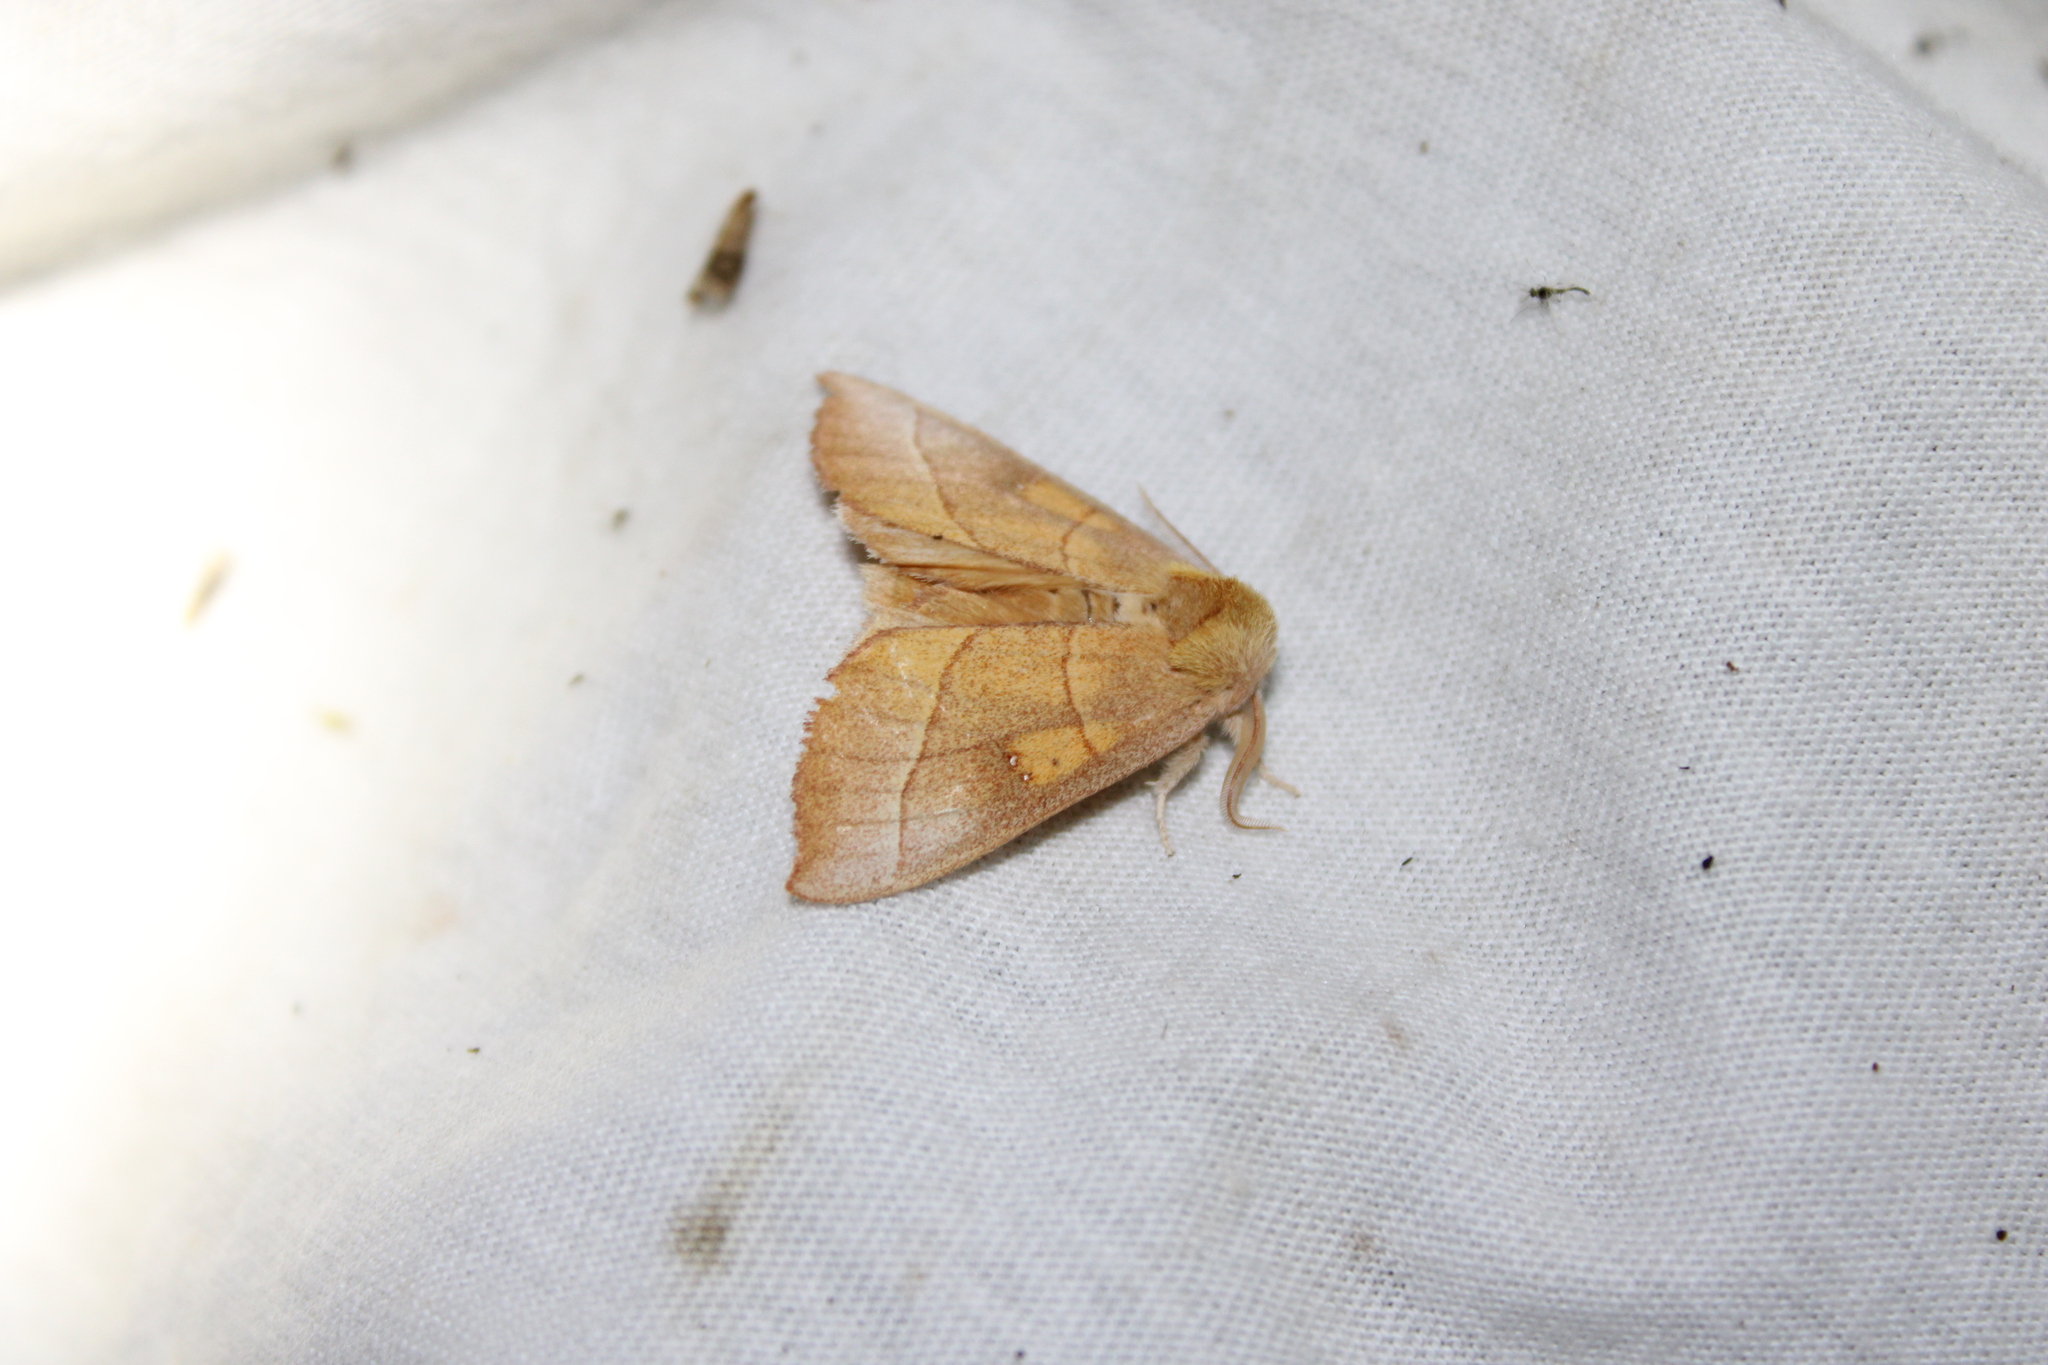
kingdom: Animalia
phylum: Arthropoda
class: Insecta
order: Lepidoptera
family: Notodontidae
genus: Nadata
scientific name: Nadata gibbosa
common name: White-dotted prominent
